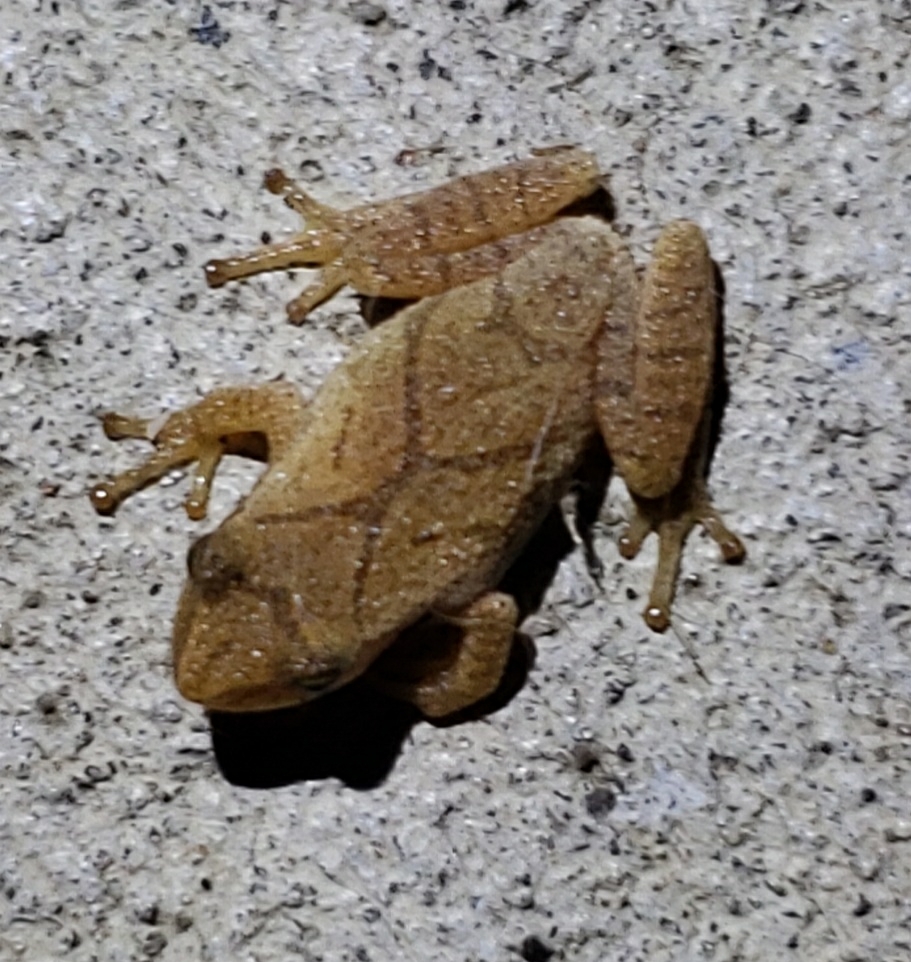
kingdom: Animalia
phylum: Chordata
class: Amphibia
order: Anura
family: Hylidae
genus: Pseudacris
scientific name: Pseudacris crucifer
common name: Spring peeper
